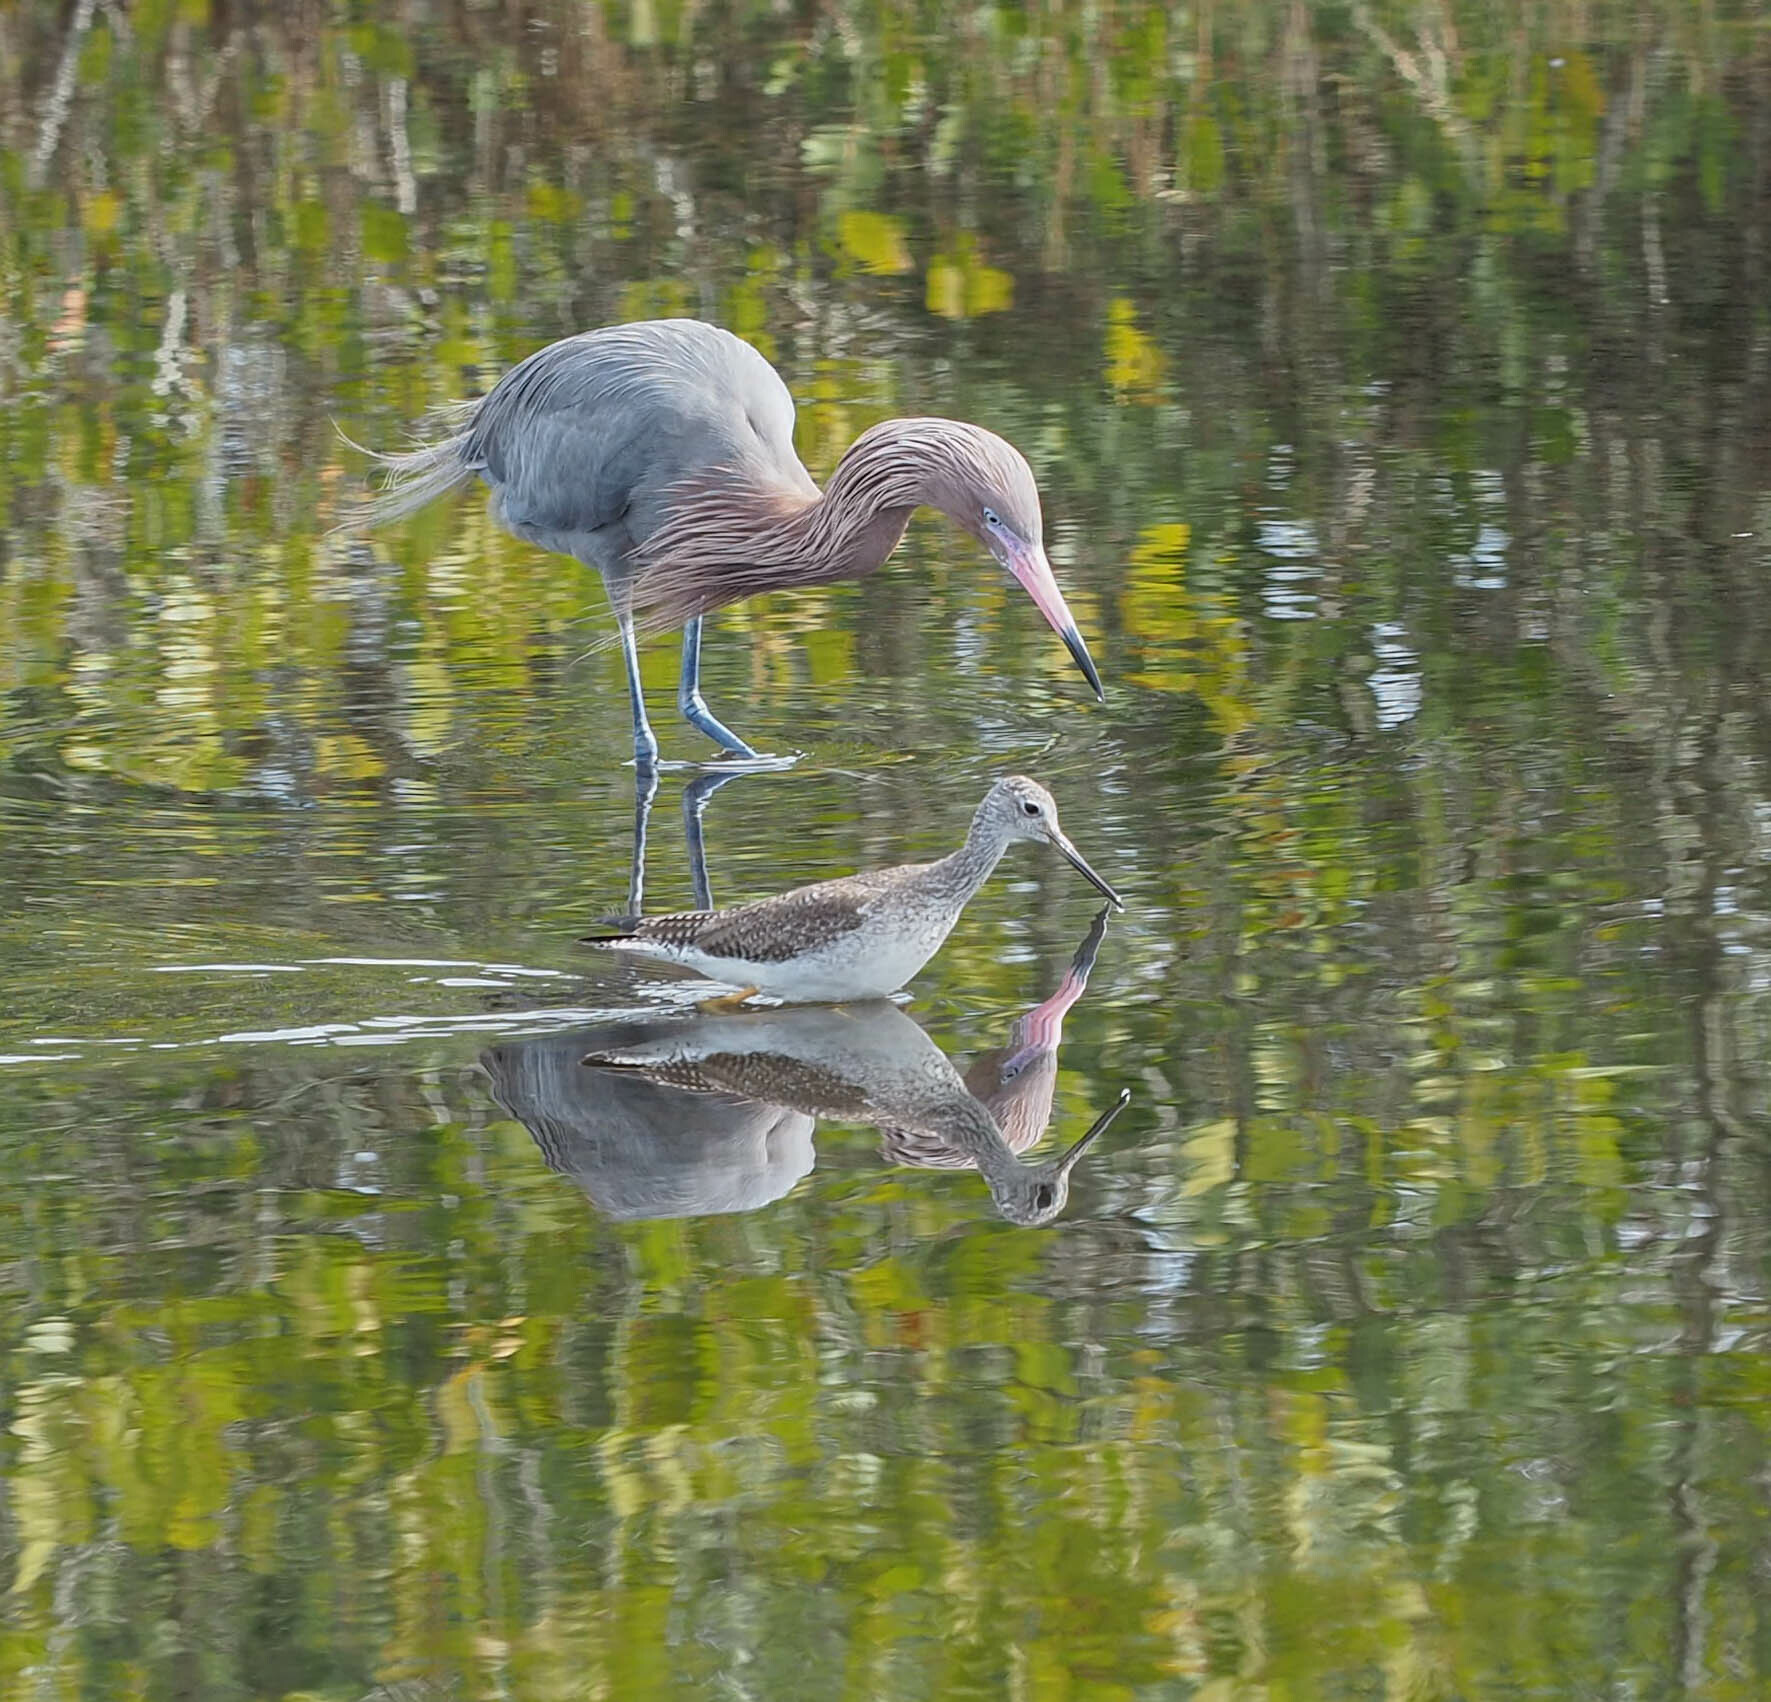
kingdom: Animalia
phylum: Chordata
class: Aves
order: Pelecaniformes
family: Ardeidae
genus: Egretta
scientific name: Egretta rufescens
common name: Reddish egret
